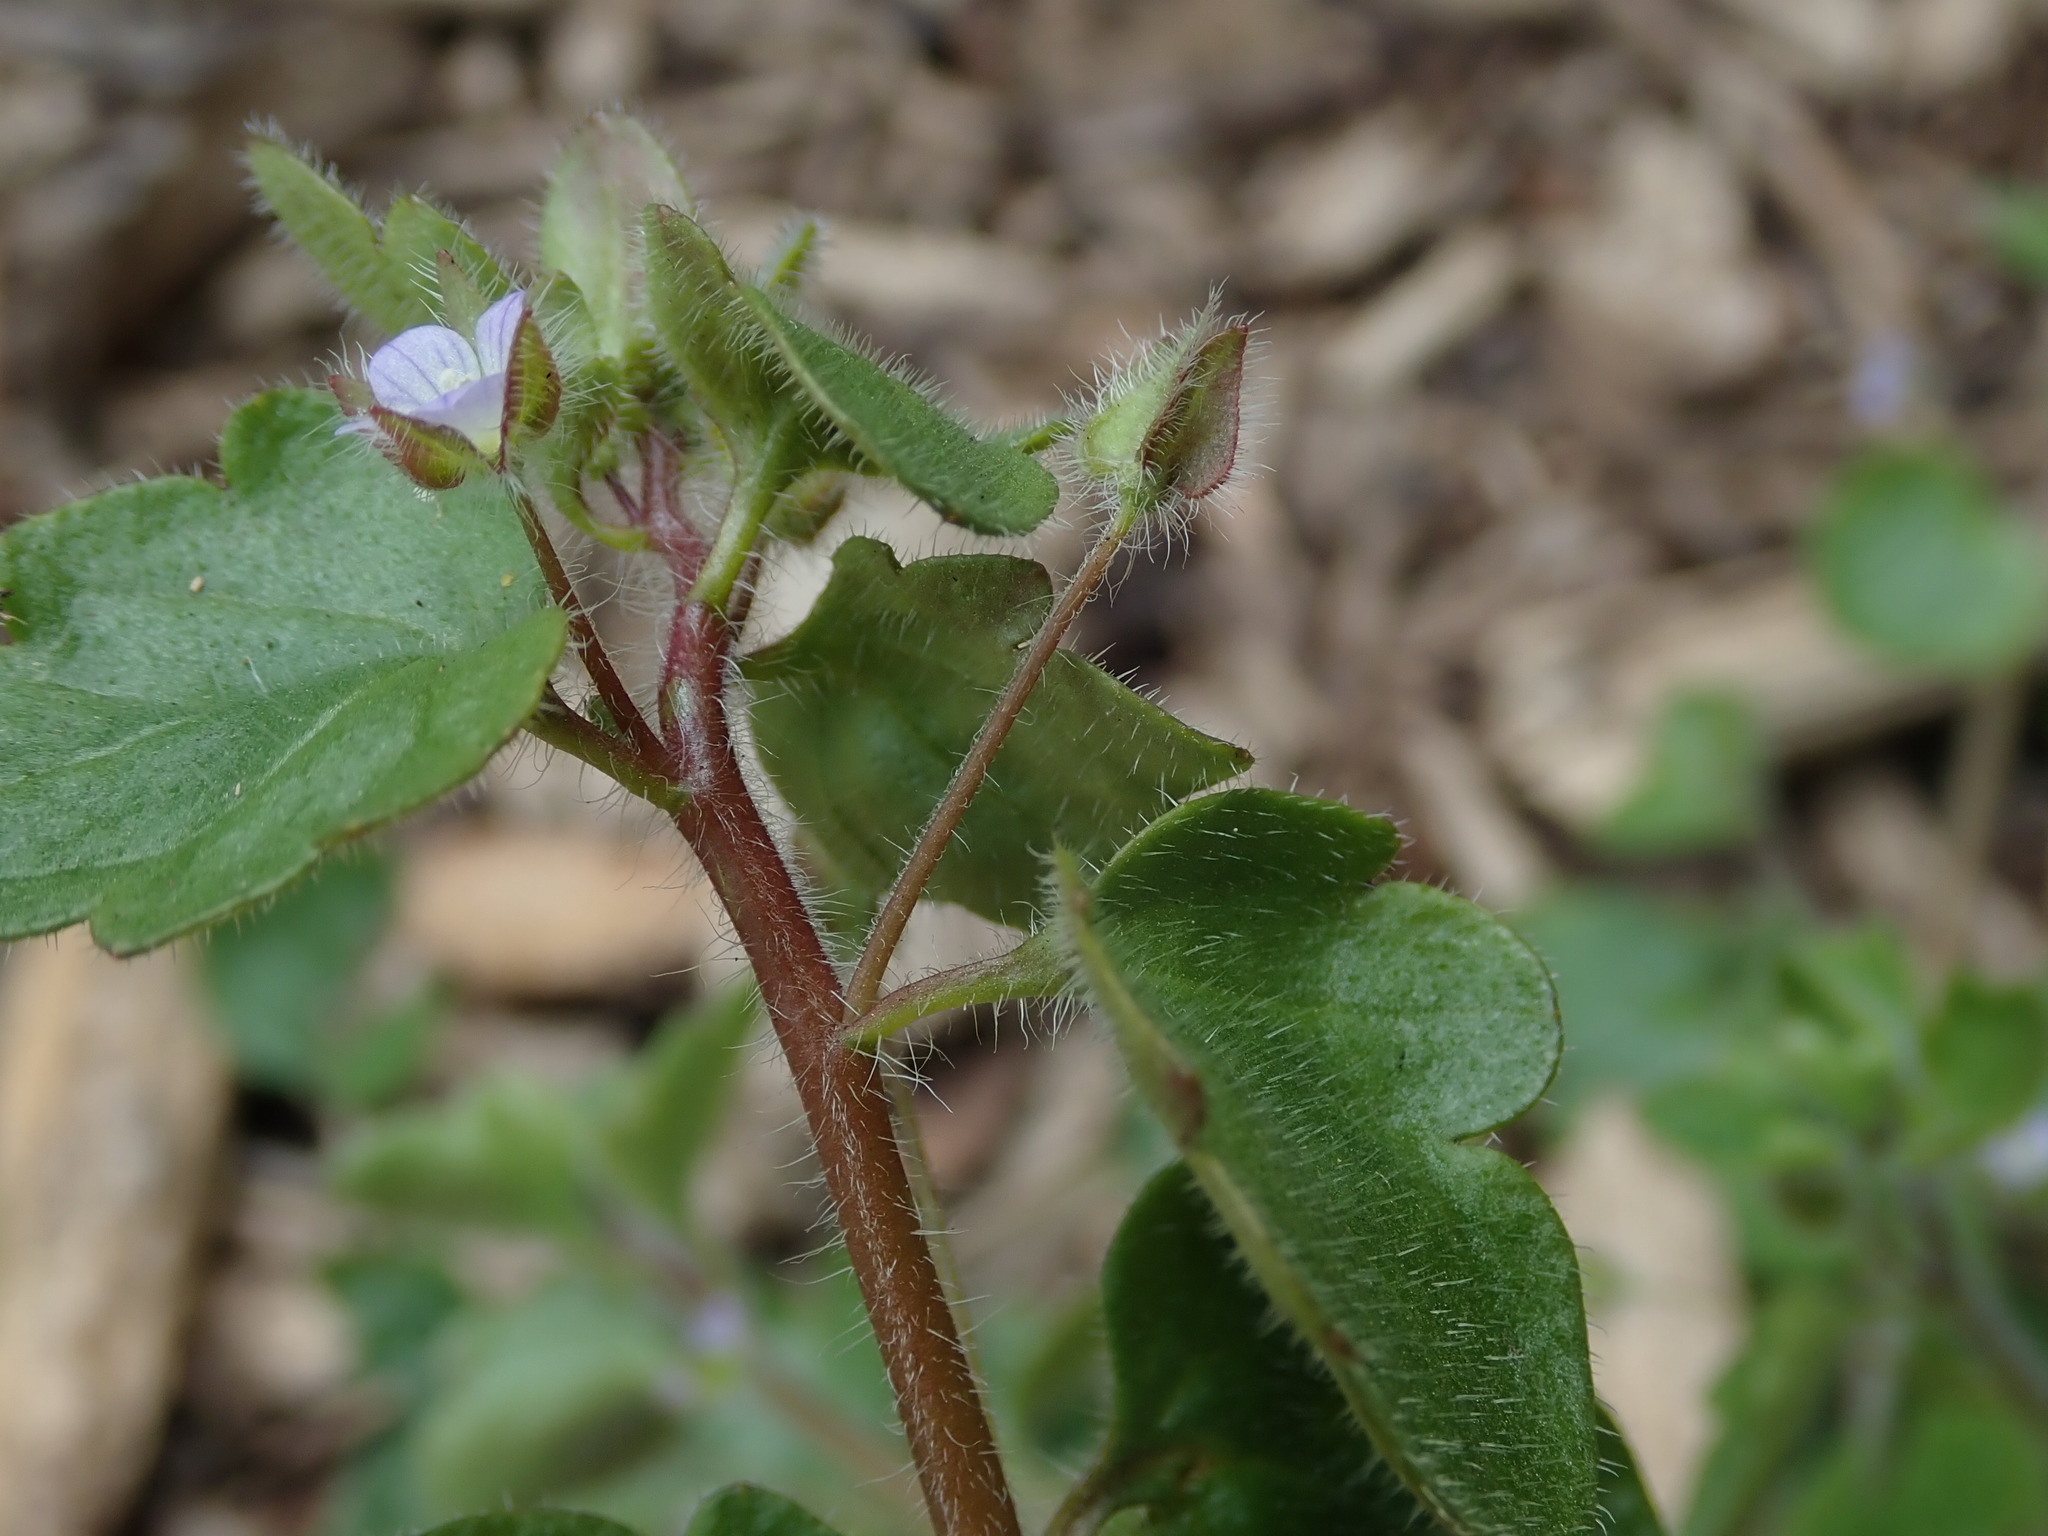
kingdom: Plantae
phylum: Tracheophyta
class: Magnoliopsida
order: Lamiales
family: Plantaginaceae
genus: Veronica
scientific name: Veronica sublobata
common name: False ivy-leaved speedwell
